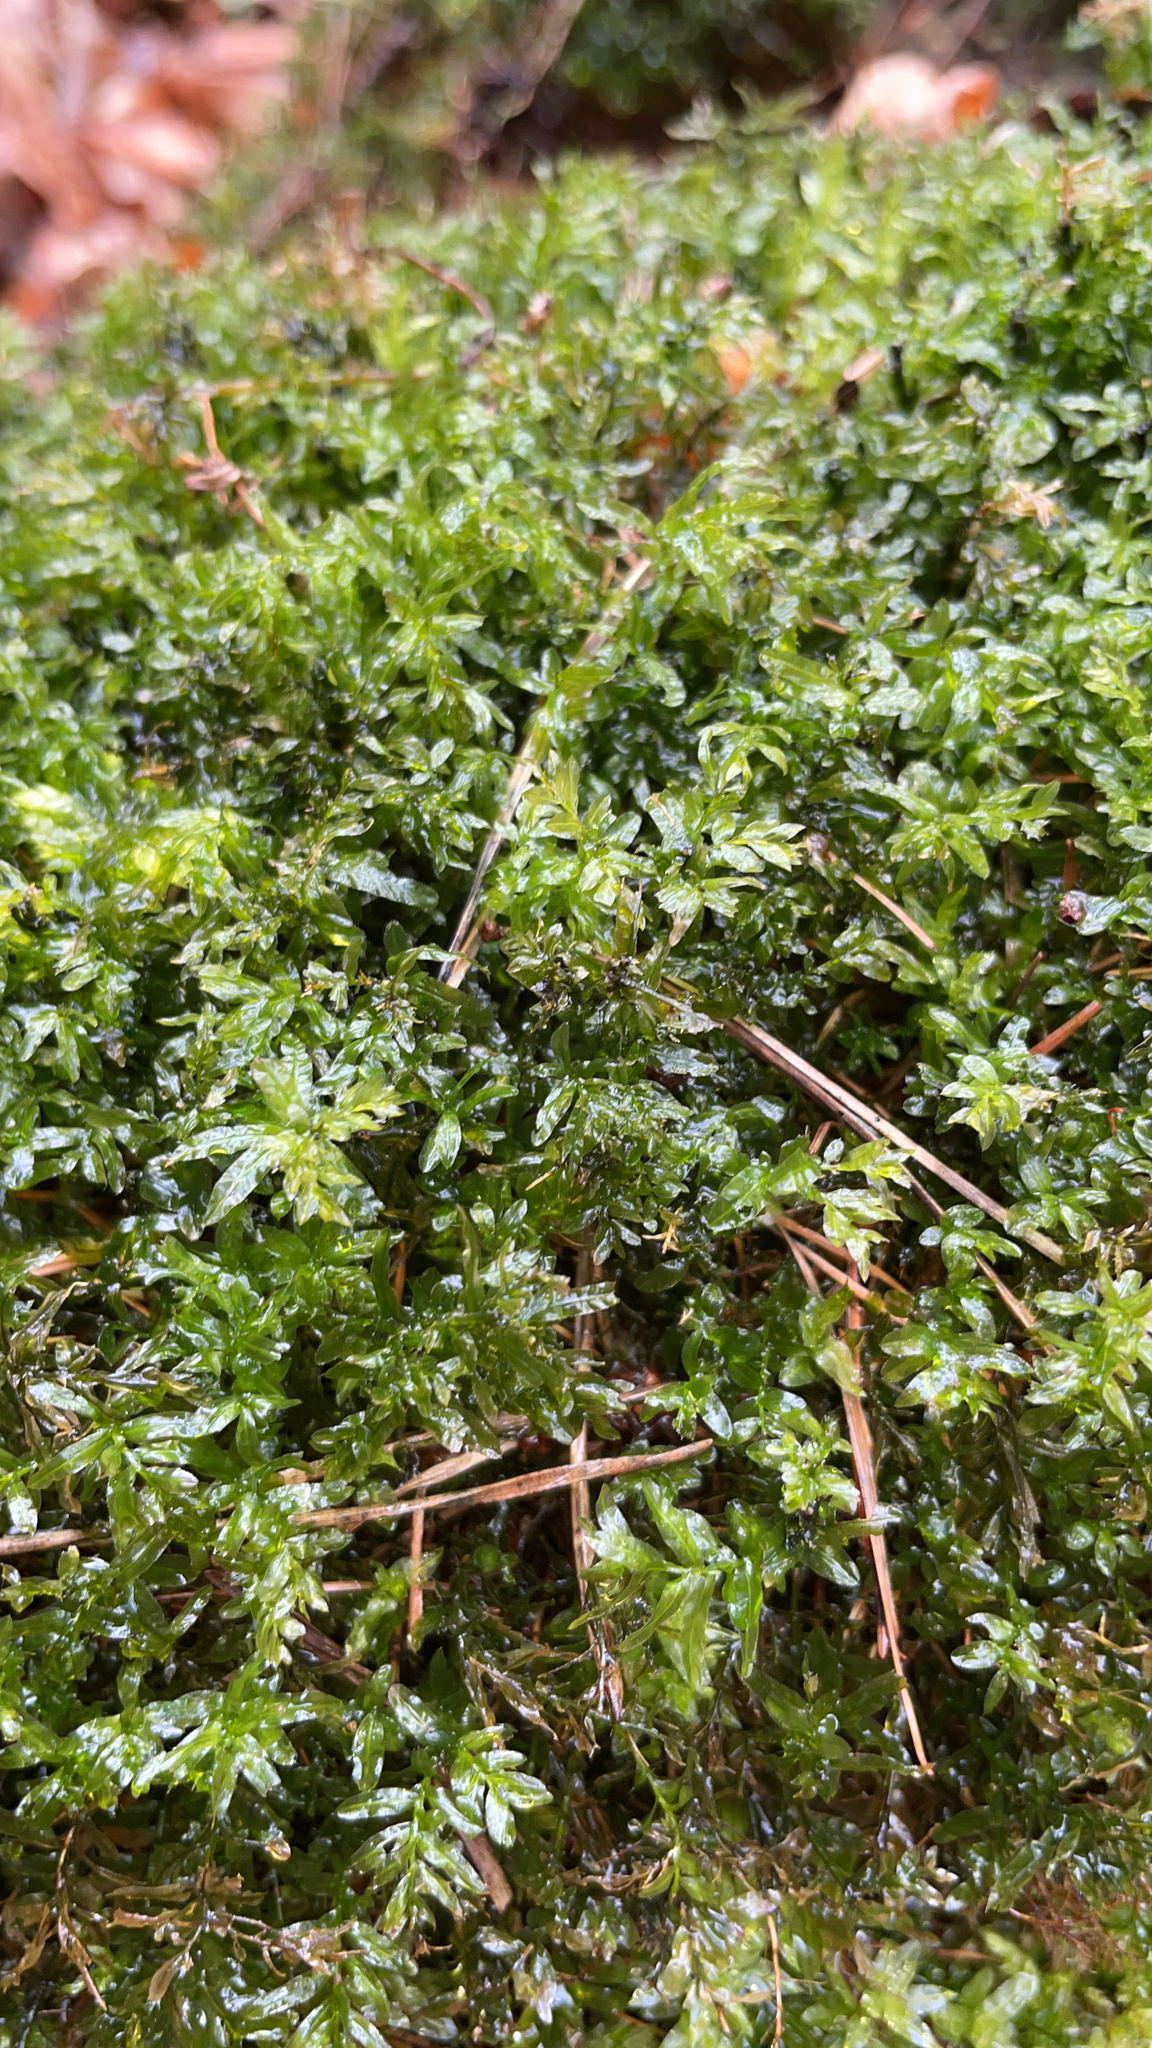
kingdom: Plantae
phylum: Bryophyta
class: Bryopsida
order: Bryales
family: Mniaceae
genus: Plagiomnium
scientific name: Plagiomnium undulatum
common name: Hart's-tongue thyme-moss
